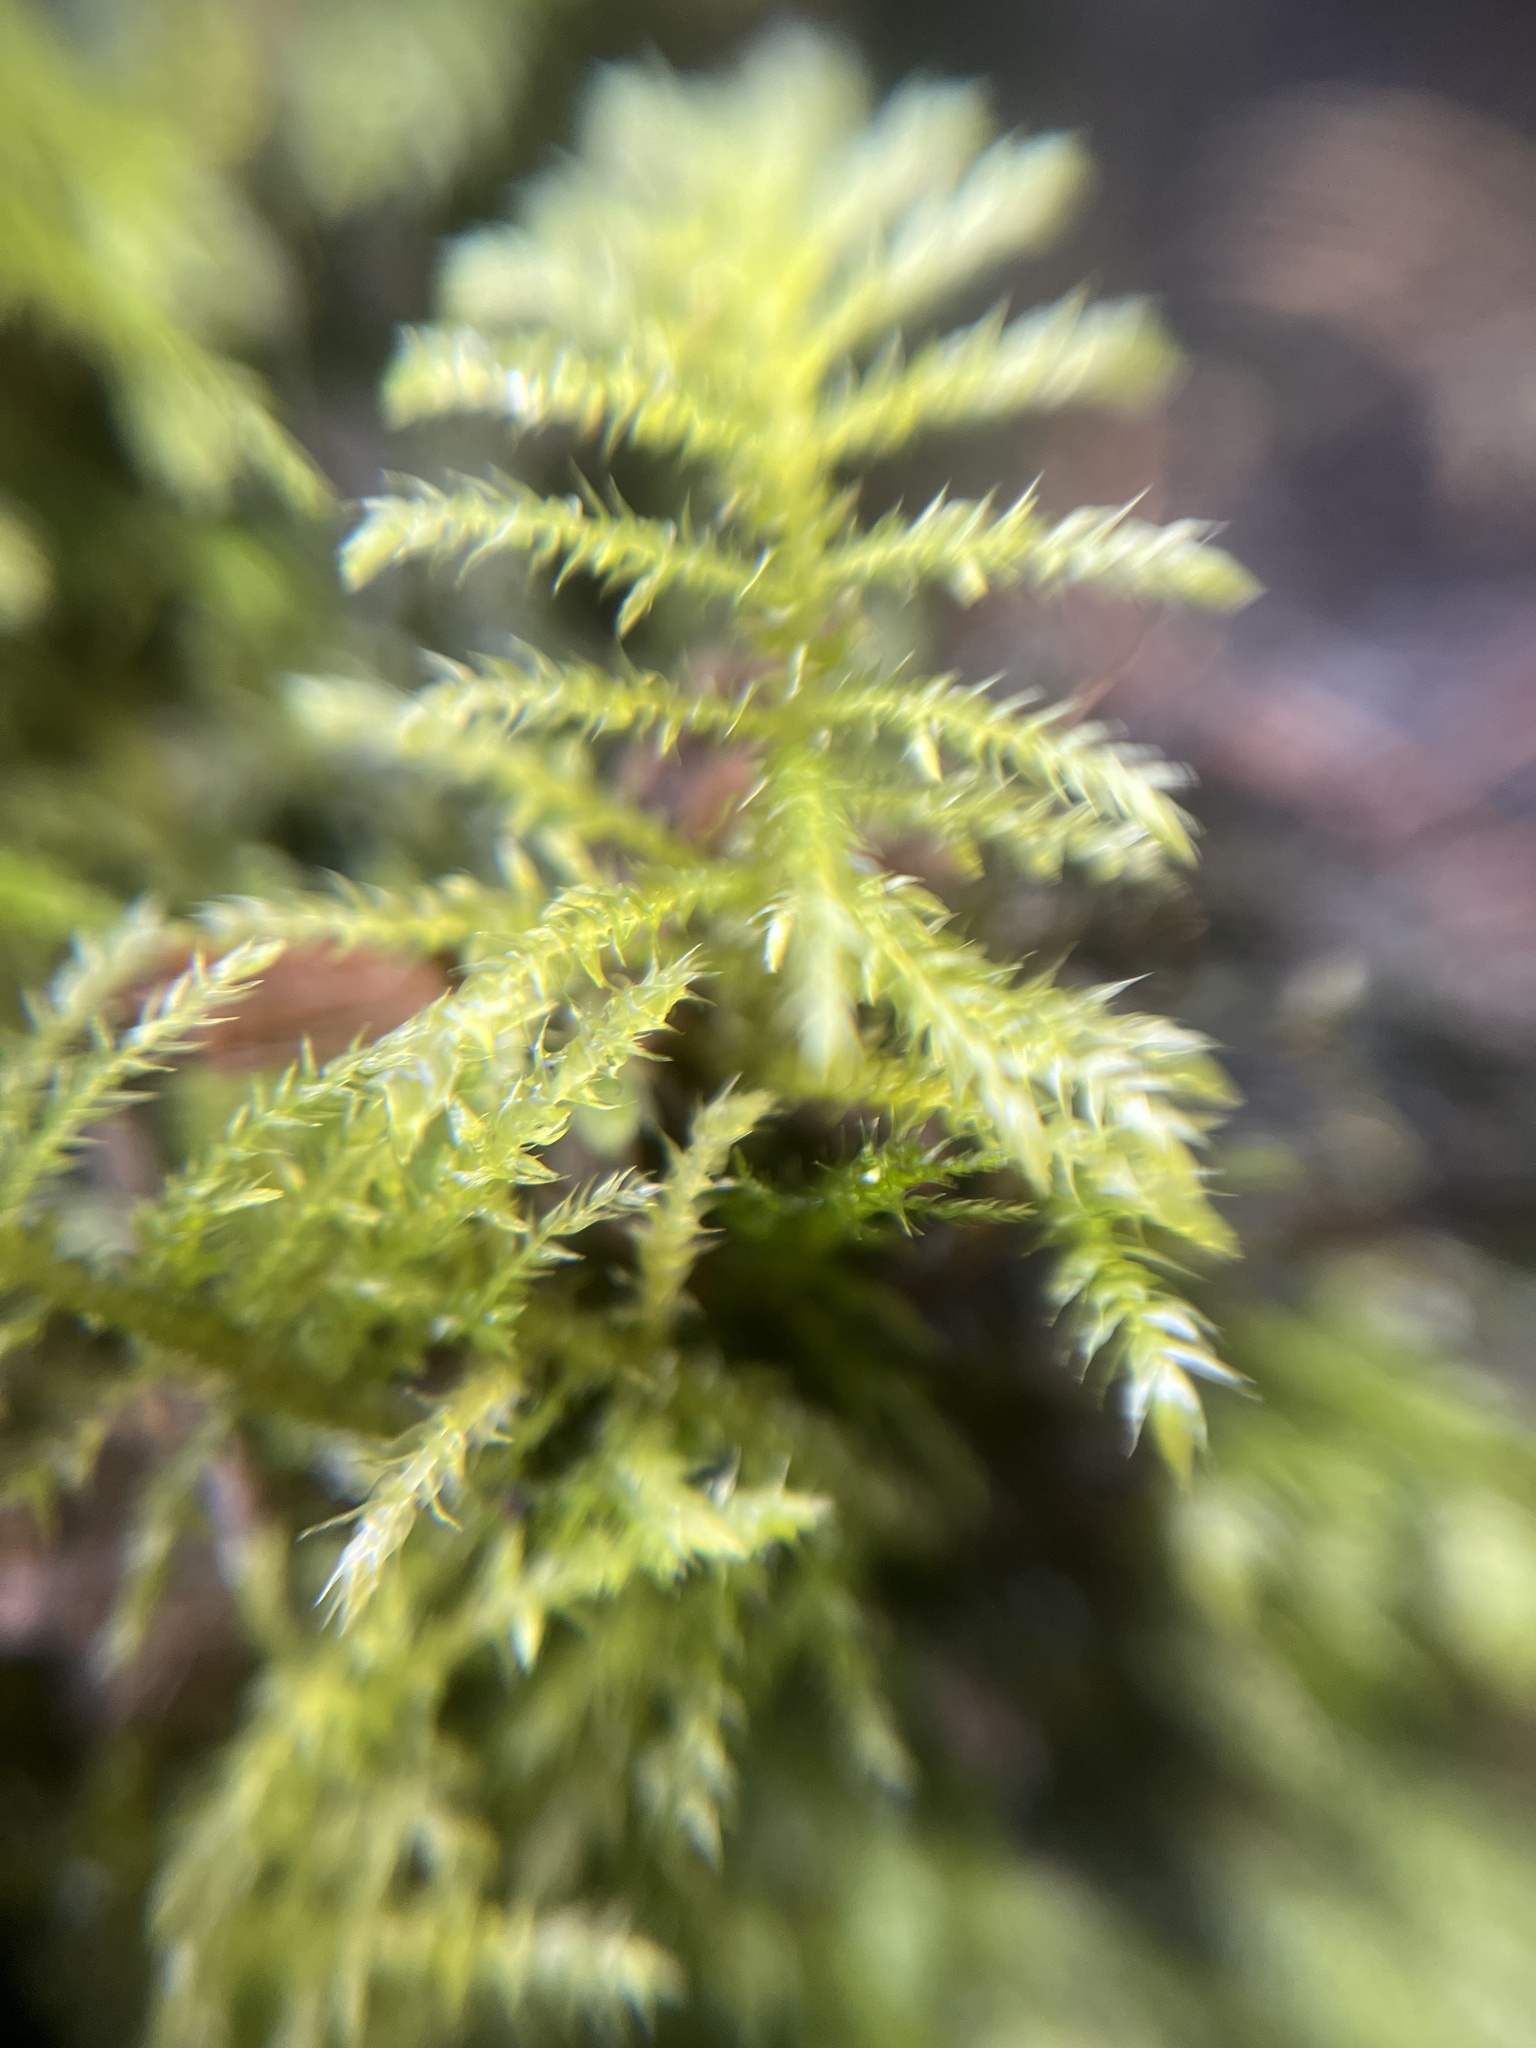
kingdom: Plantae
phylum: Bryophyta
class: Bryopsida
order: Hypnales
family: Brachytheciaceae
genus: Kindbergia
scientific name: Kindbergia praelonga
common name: Slender beaked moss
